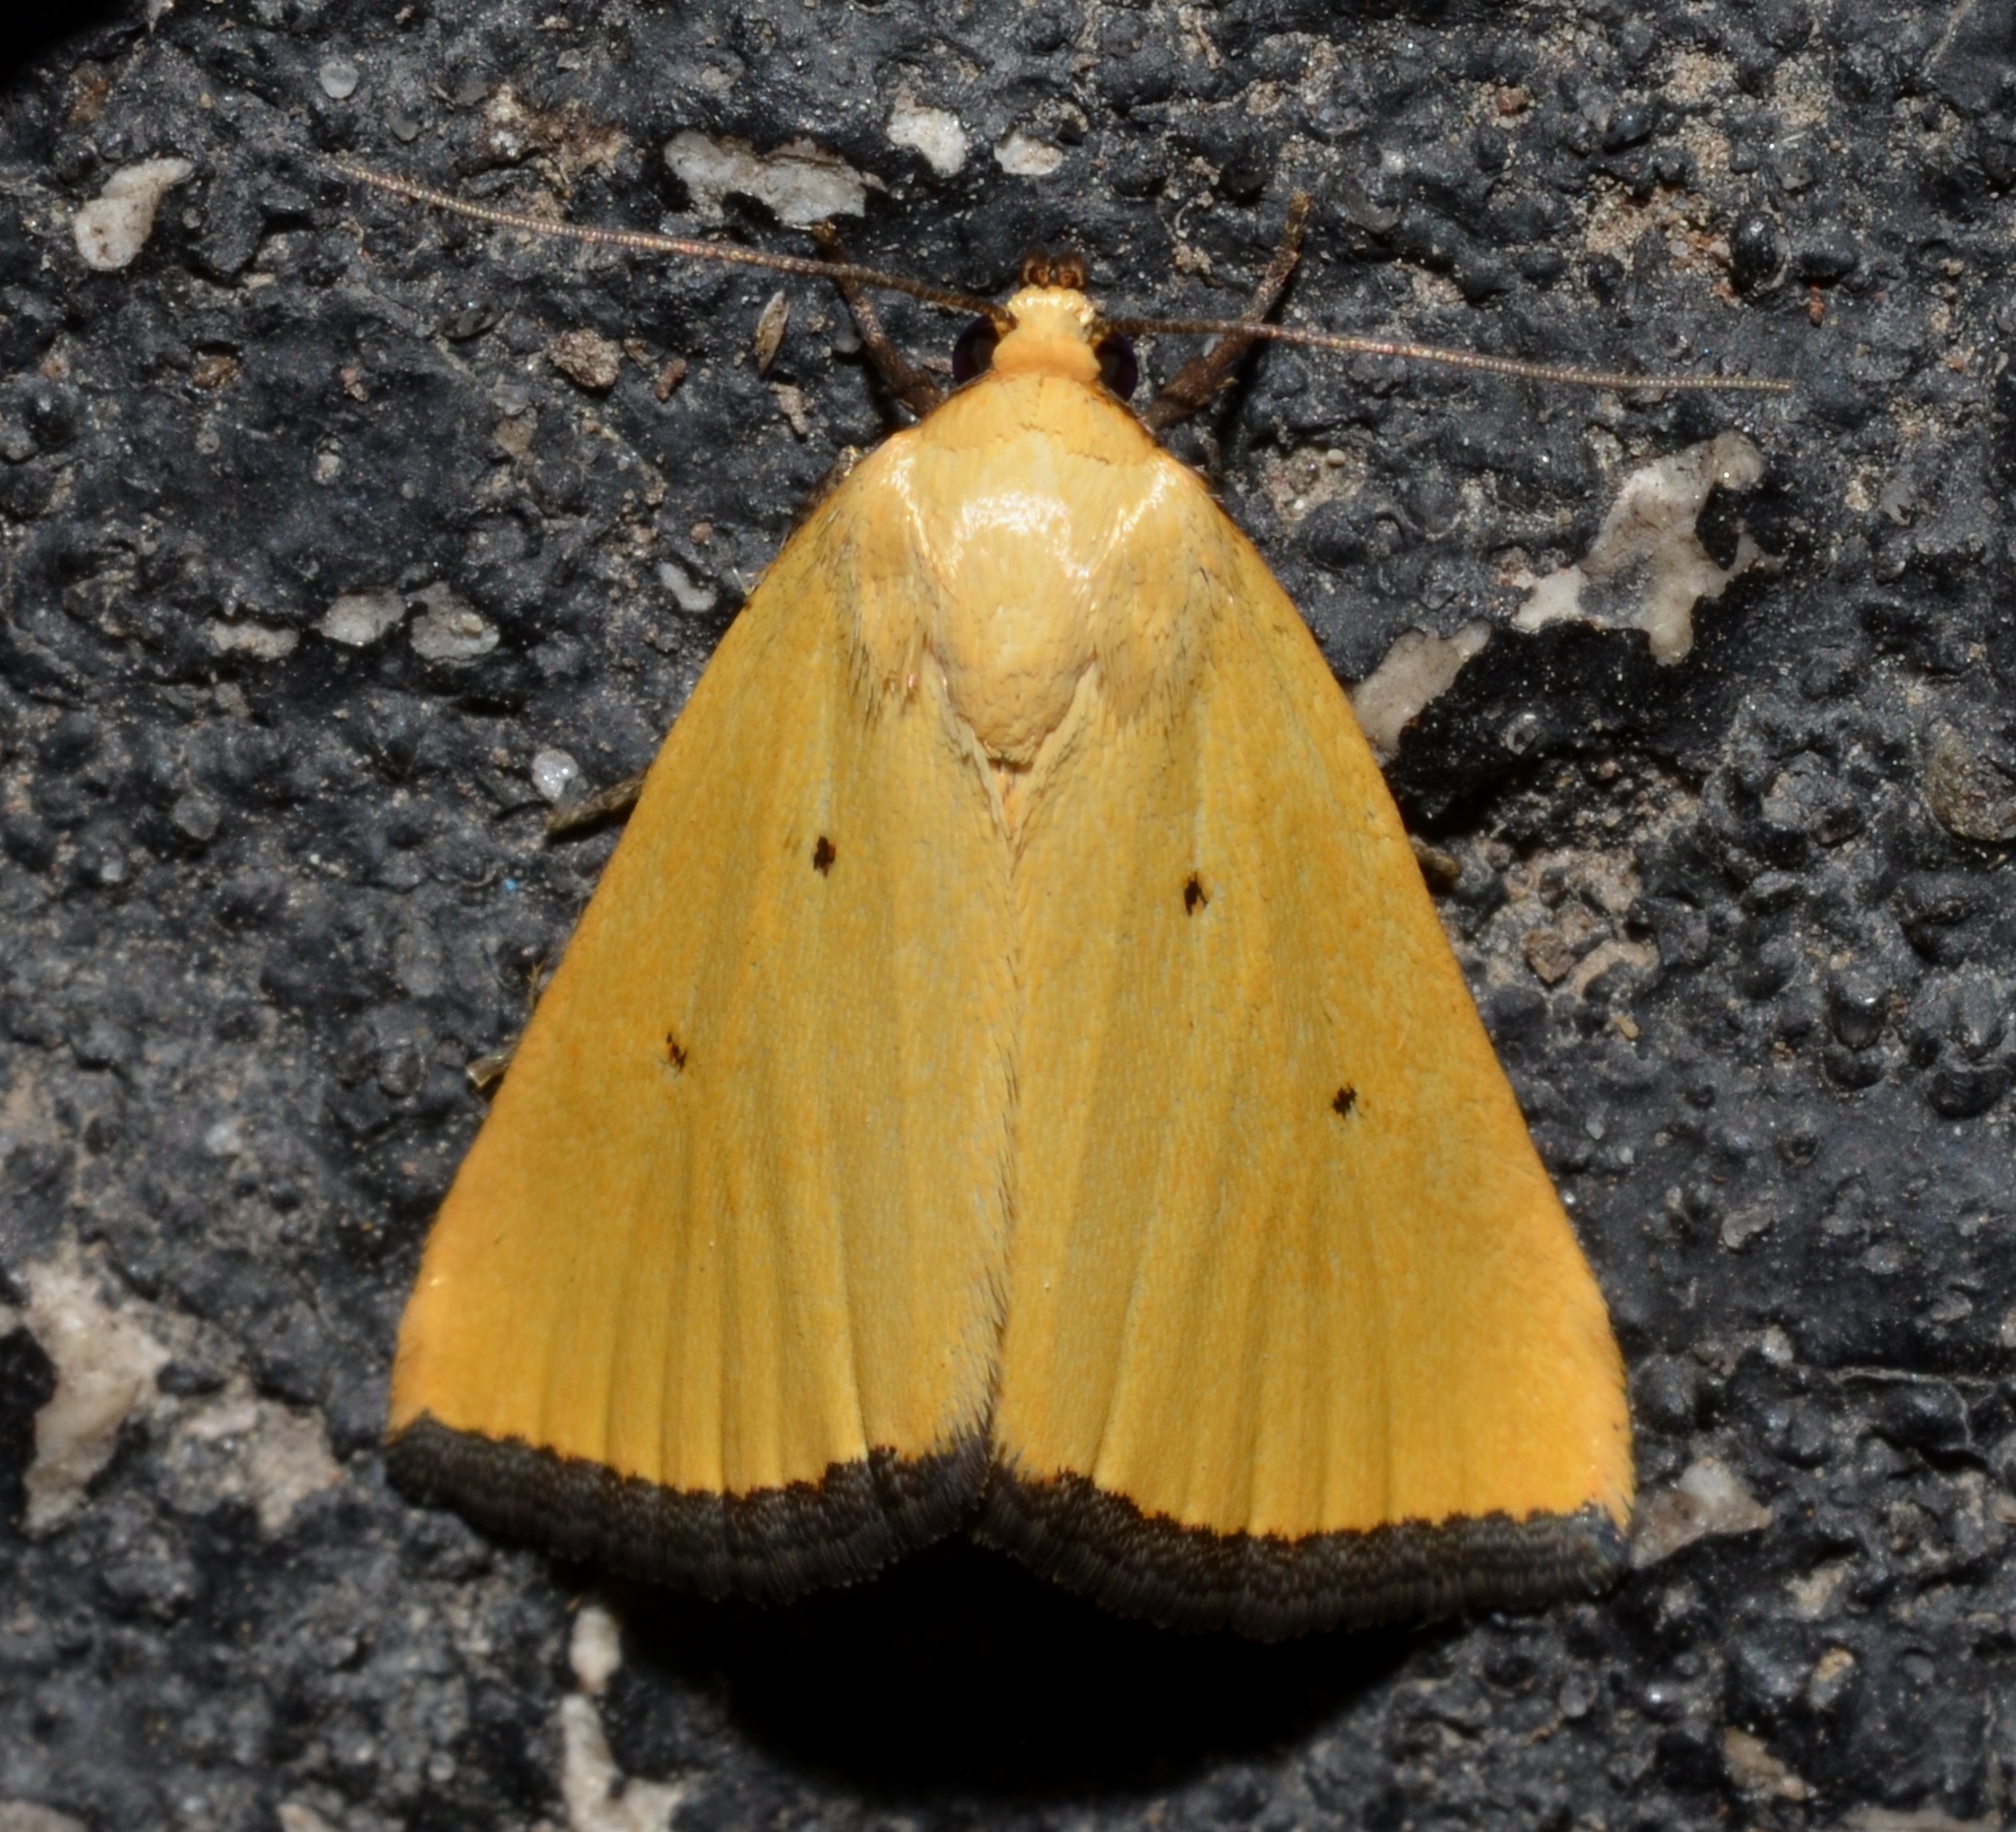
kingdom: Animalia
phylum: Arthropoda
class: Insecta
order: Lepidoptera
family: Noctuidae
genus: Marimatha
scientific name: Marimatha nigrofimbria
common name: Black-bordered lemon moth
